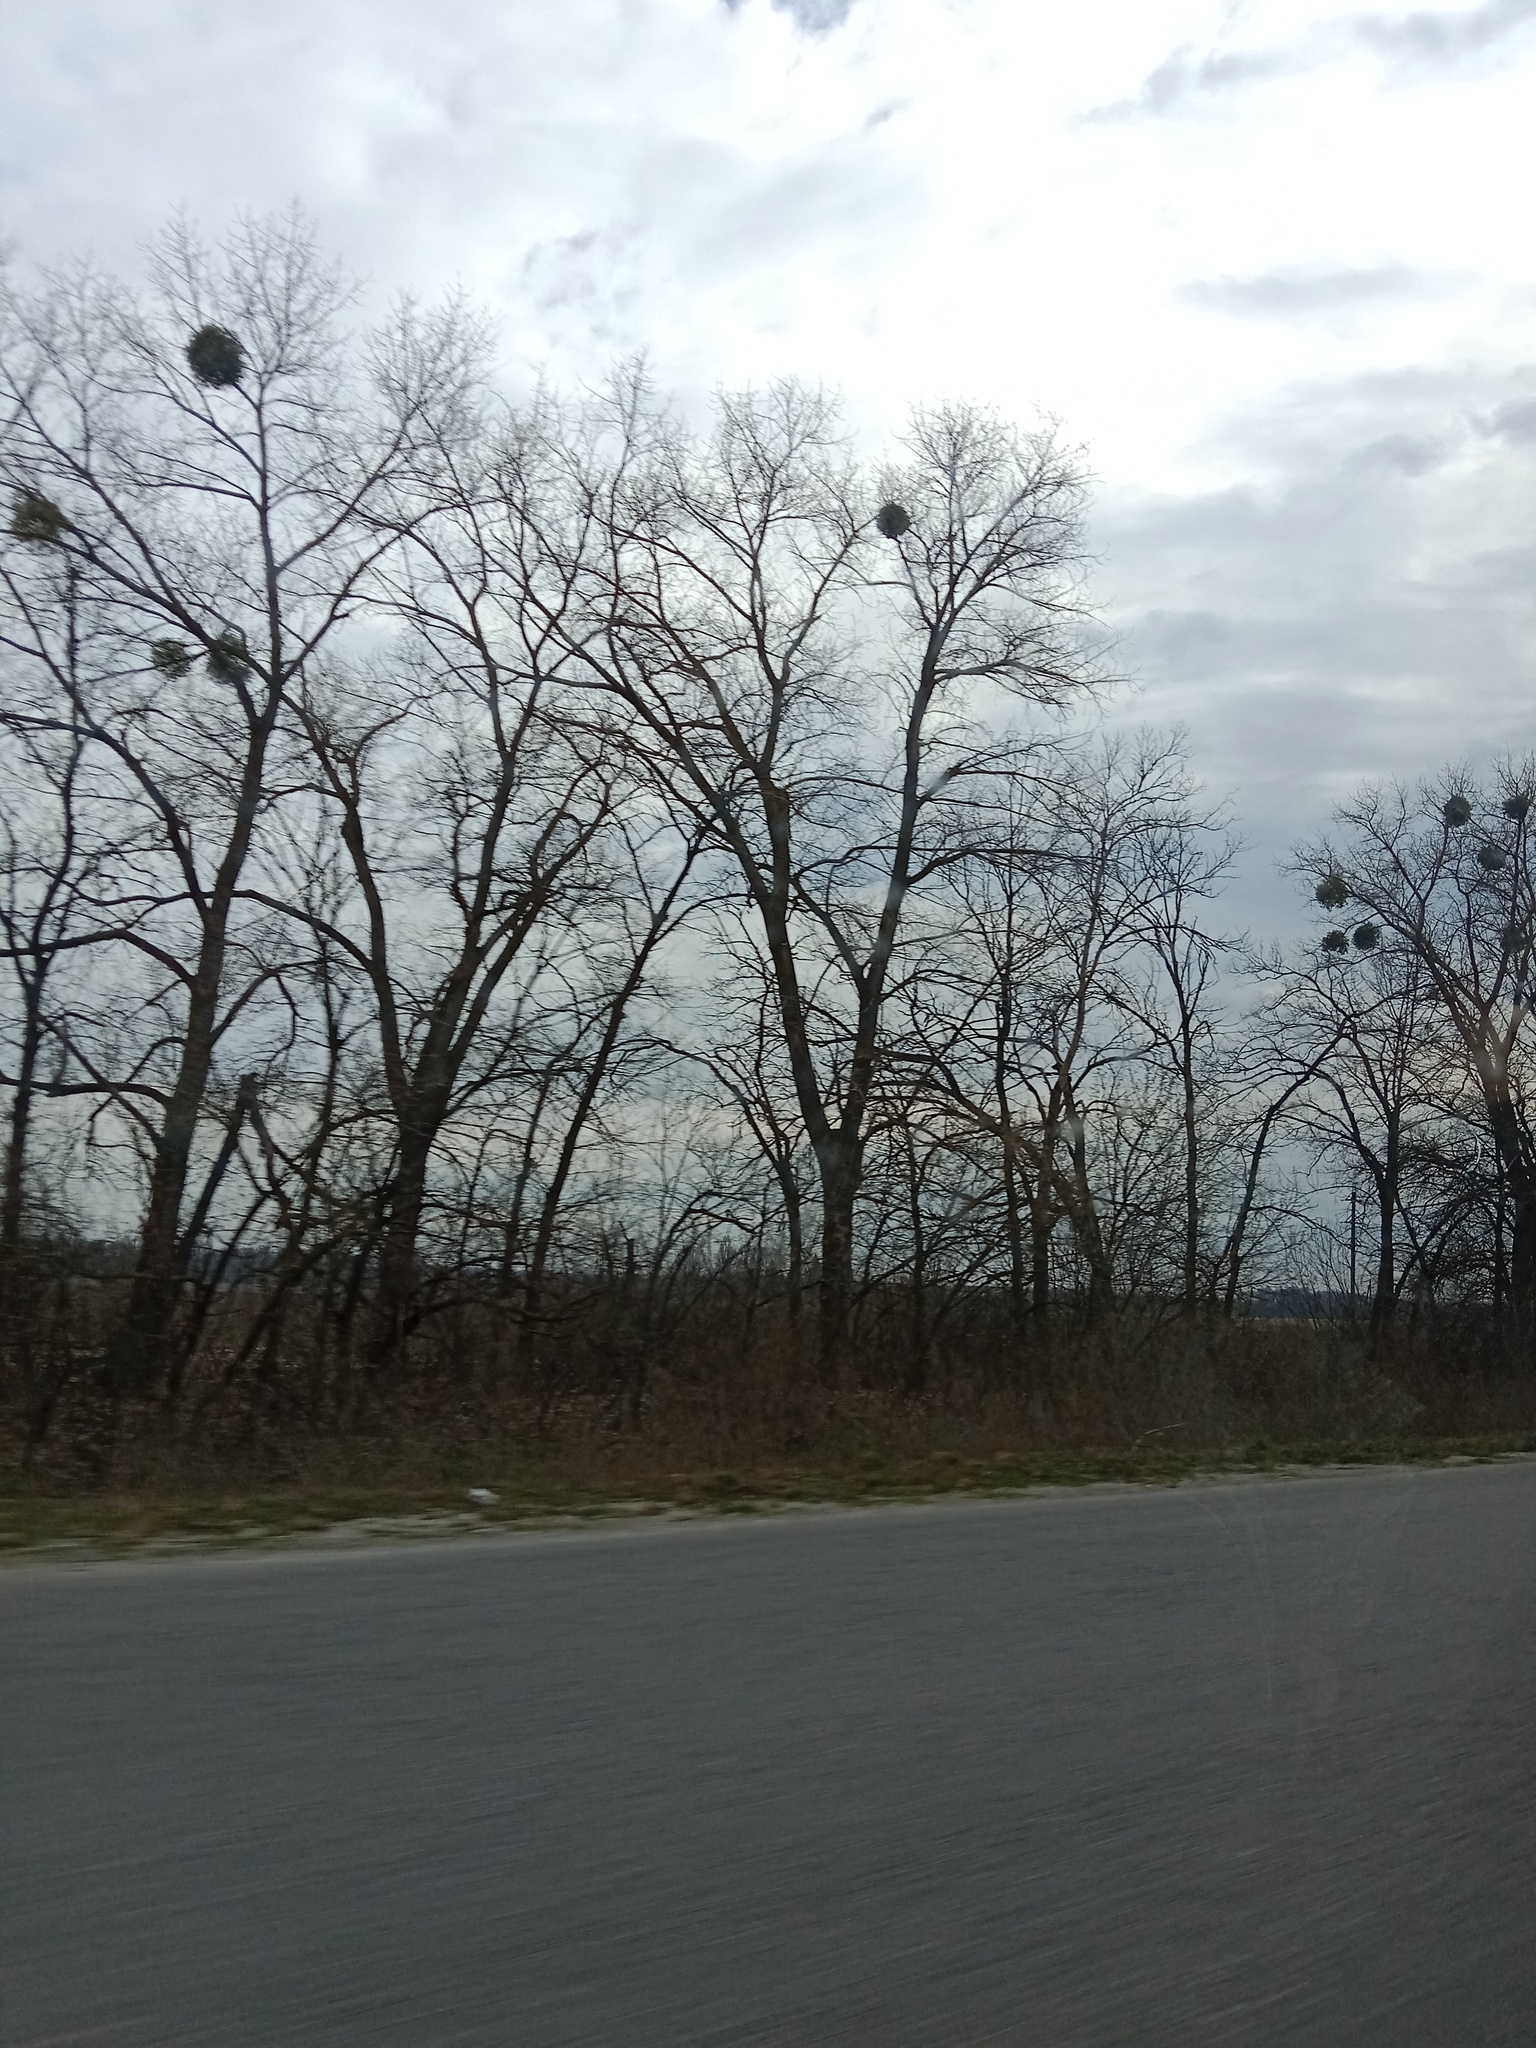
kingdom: Plantae
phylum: Tracheophyta
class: Magnoliopsida
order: Santalales
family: Viscaceae
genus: Viscum
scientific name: Viscum album
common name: Mistletoe
